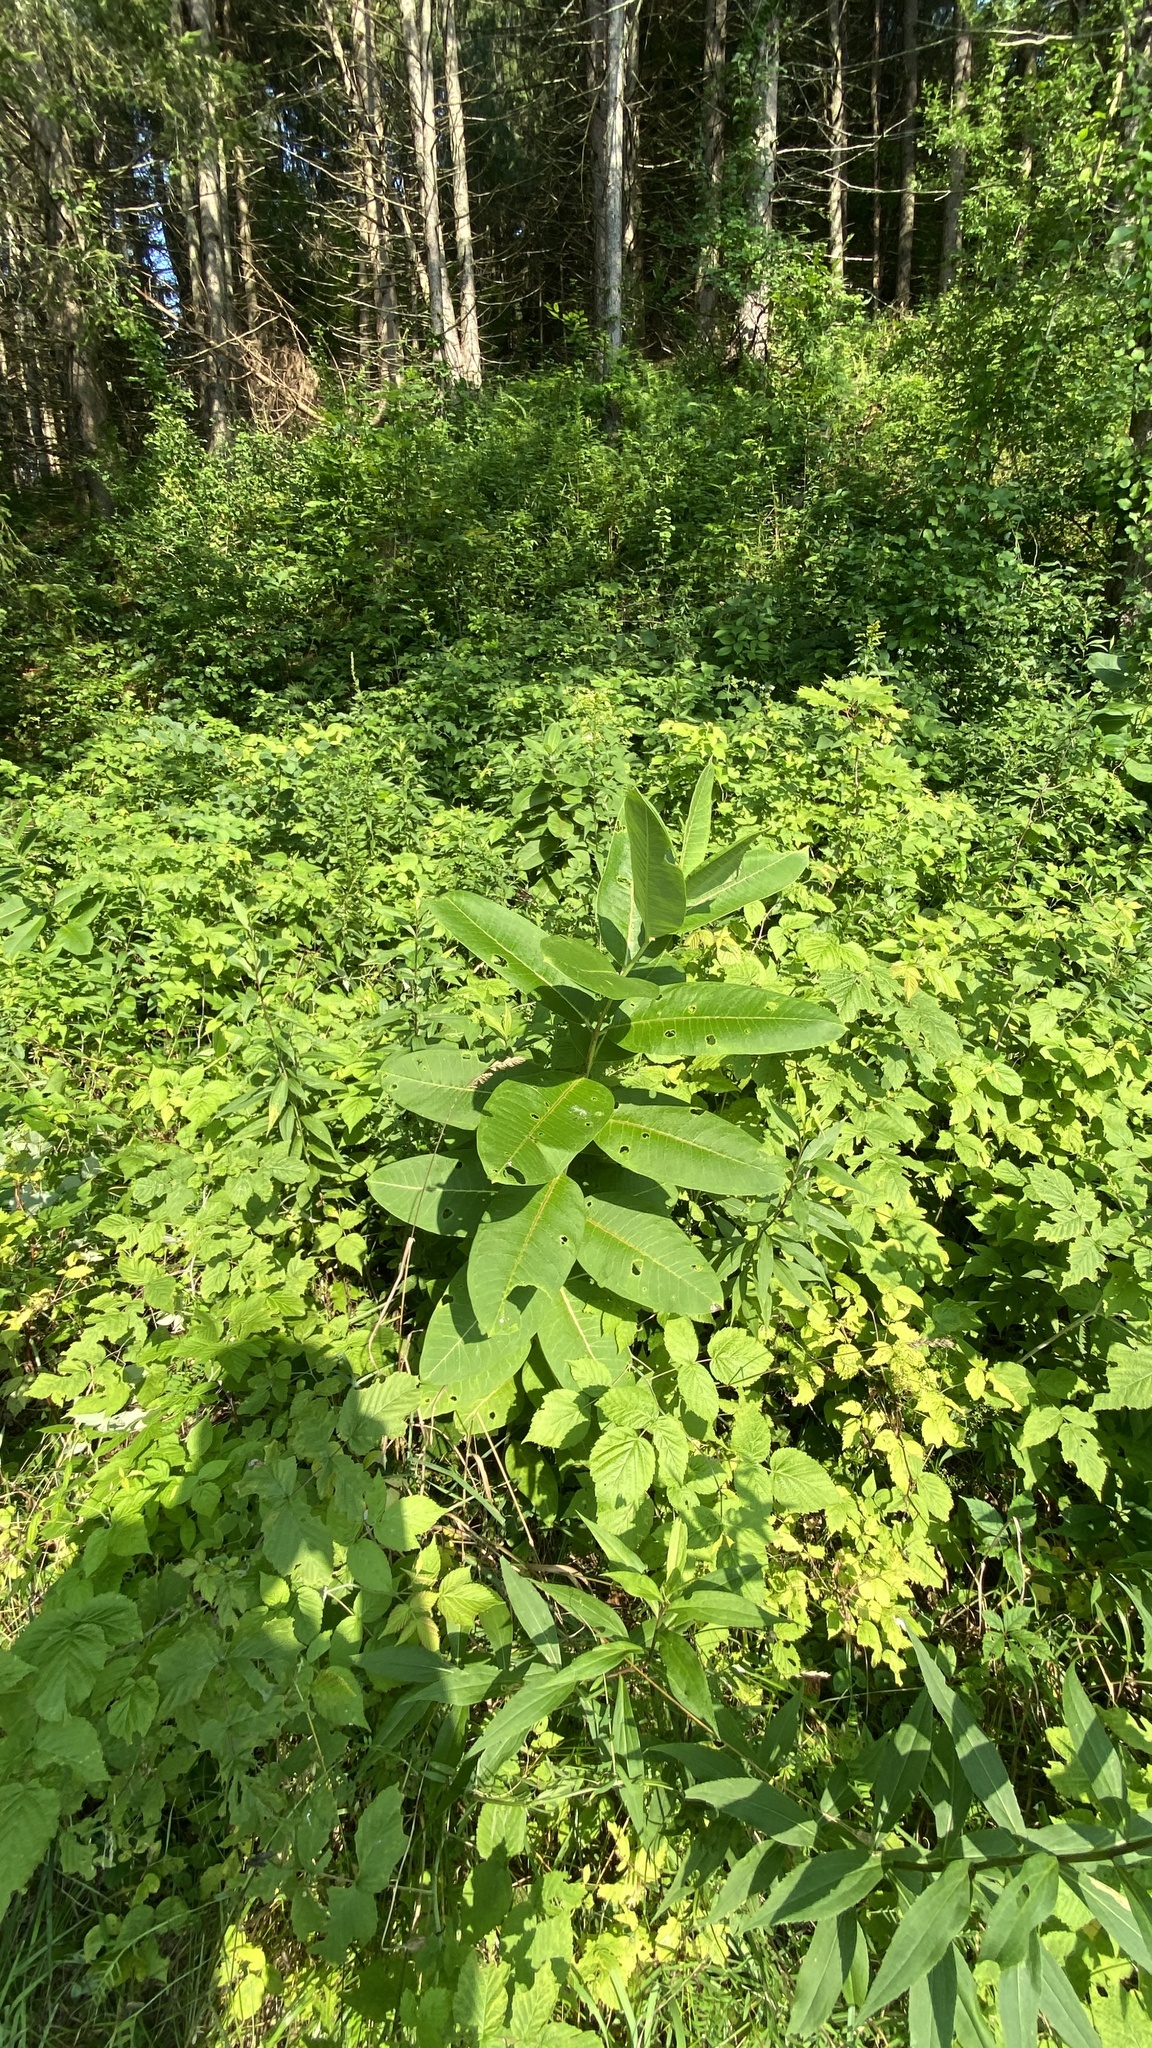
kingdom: Plantae
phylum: Tracheophyta
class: Magnoliopsida
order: Gentianales
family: Apocynaceae
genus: Asclepias
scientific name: Asclepias syriaca
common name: Common milkweed
